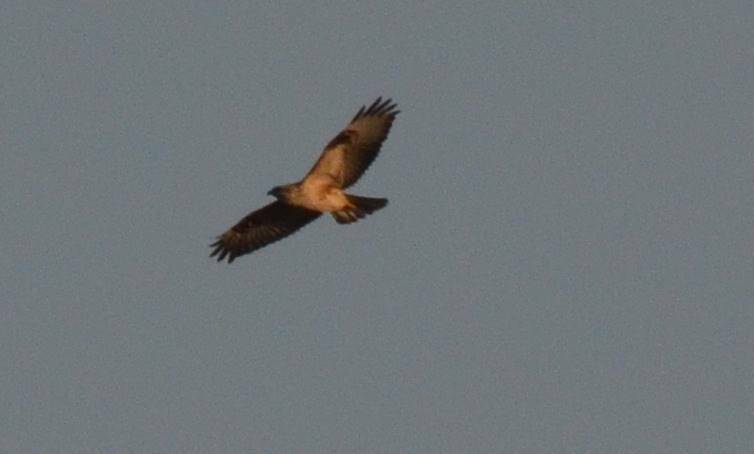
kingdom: Animalia
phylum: Chordata
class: Aves
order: Accipitriformes
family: Accipitridae
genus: Buteo
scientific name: Buteo rufinus
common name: Long-legged buzzard
